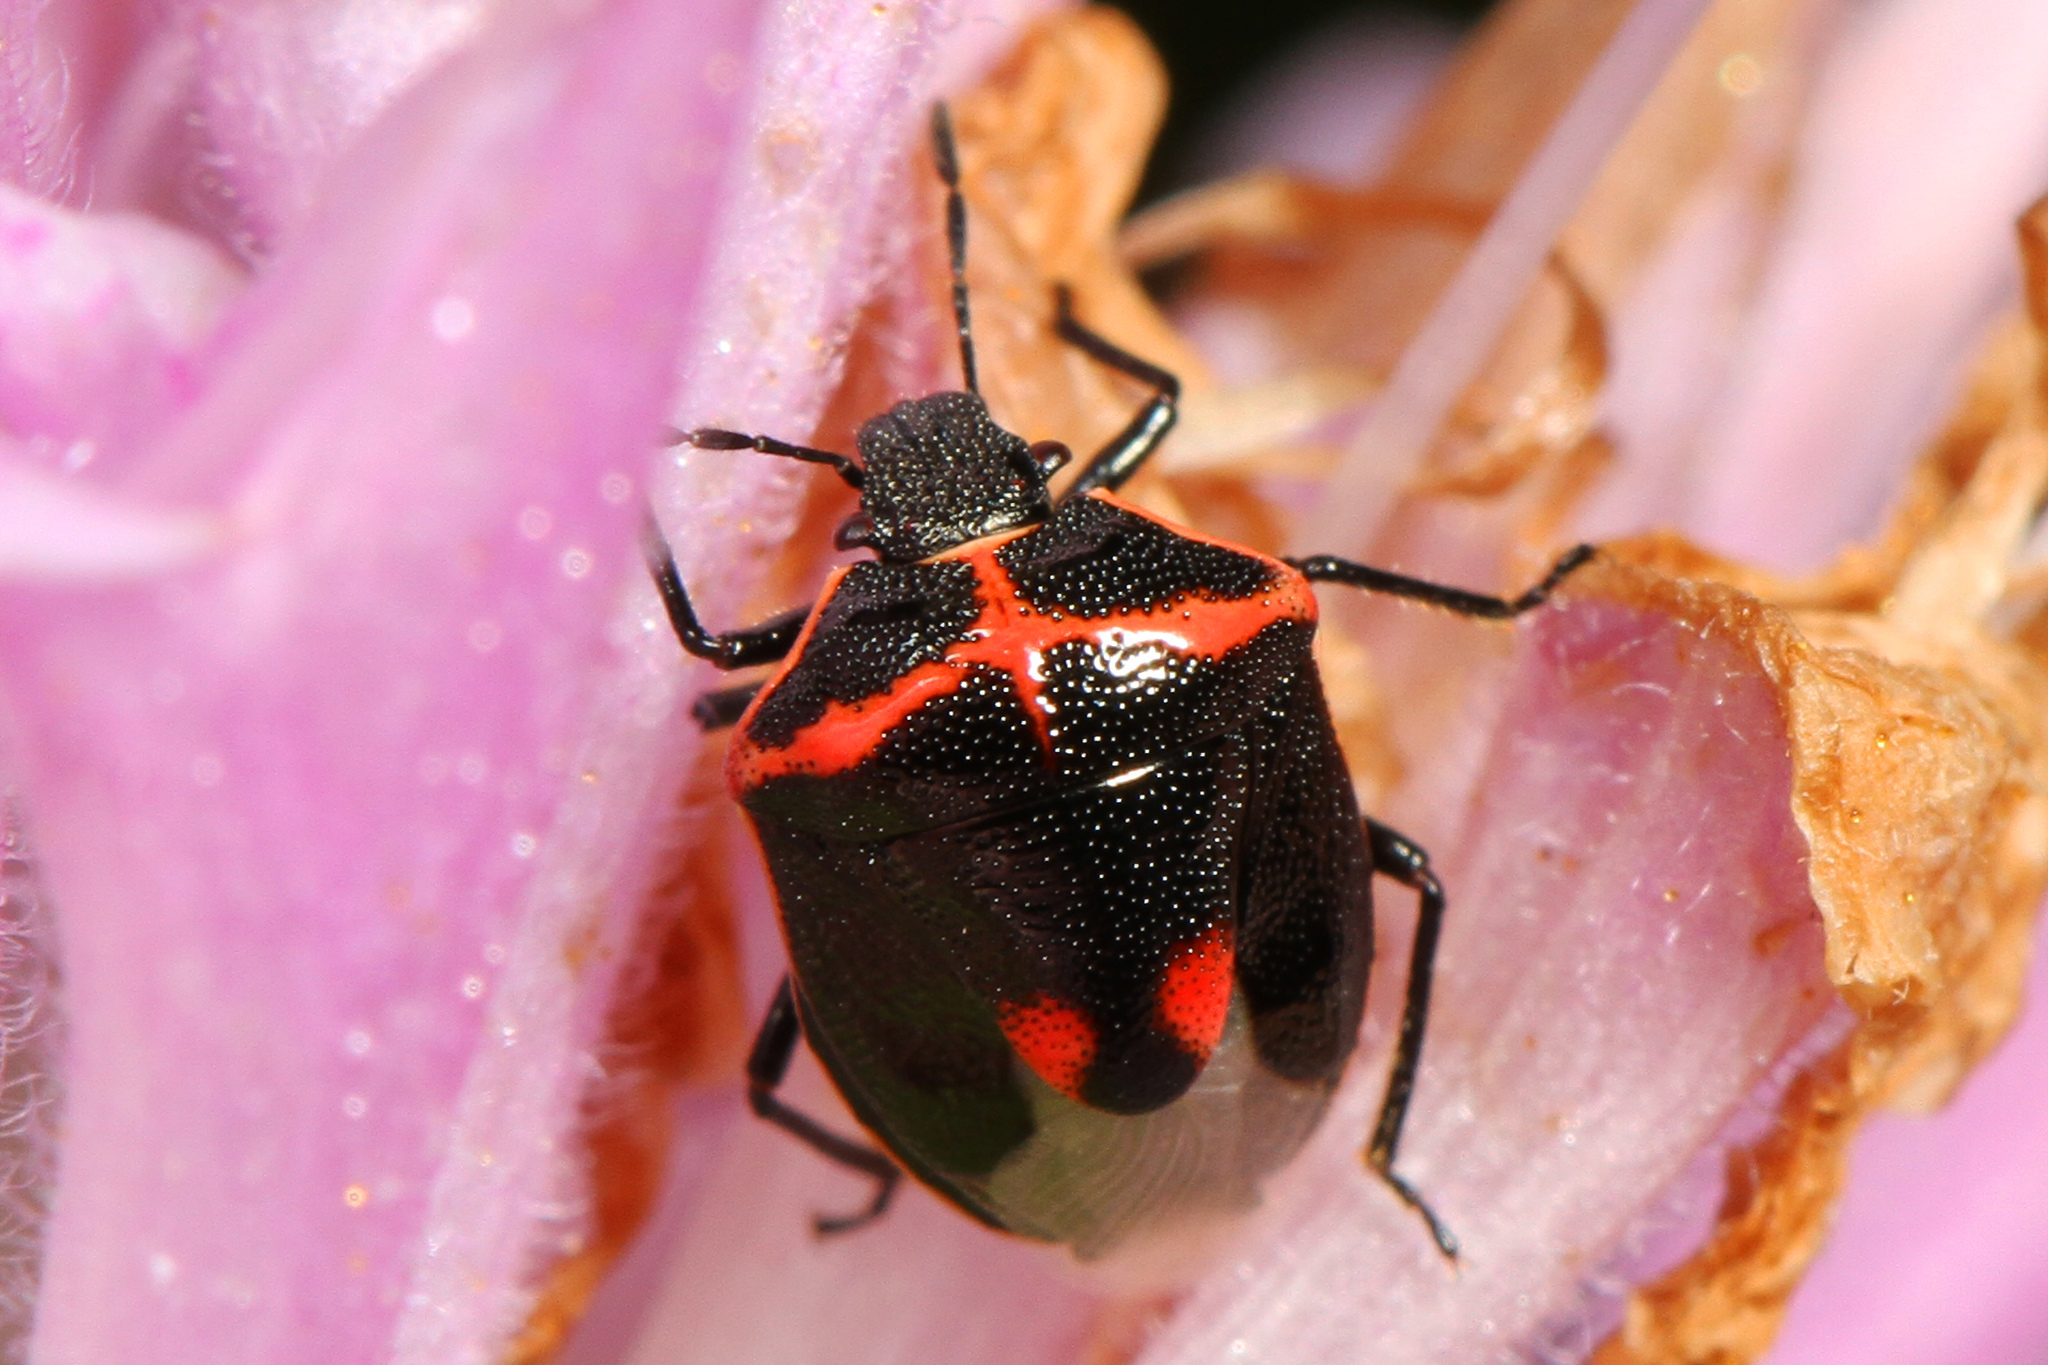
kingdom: Animalia
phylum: Arthropoda
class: Insecta
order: Hemiptera
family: Pentatomidae
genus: Cosmopepla
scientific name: Cosmopepla lintneriana
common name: Twice-stabbed stink bug
